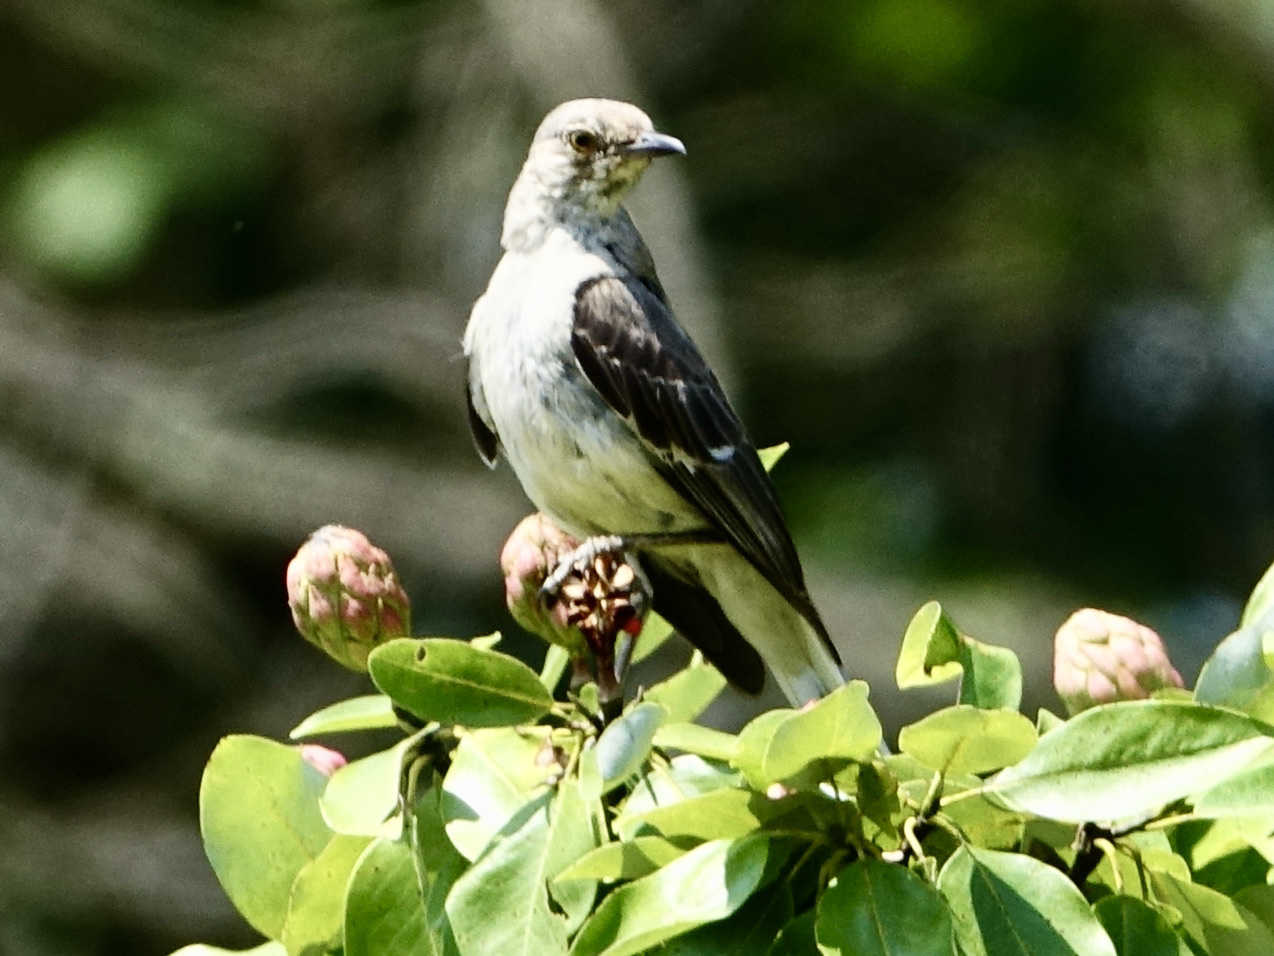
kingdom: Animalia
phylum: Chordata
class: Aves
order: Passeriformes
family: Mimidae
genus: Mimus
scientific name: Mimus polyglottos
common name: Northern mockingbird
